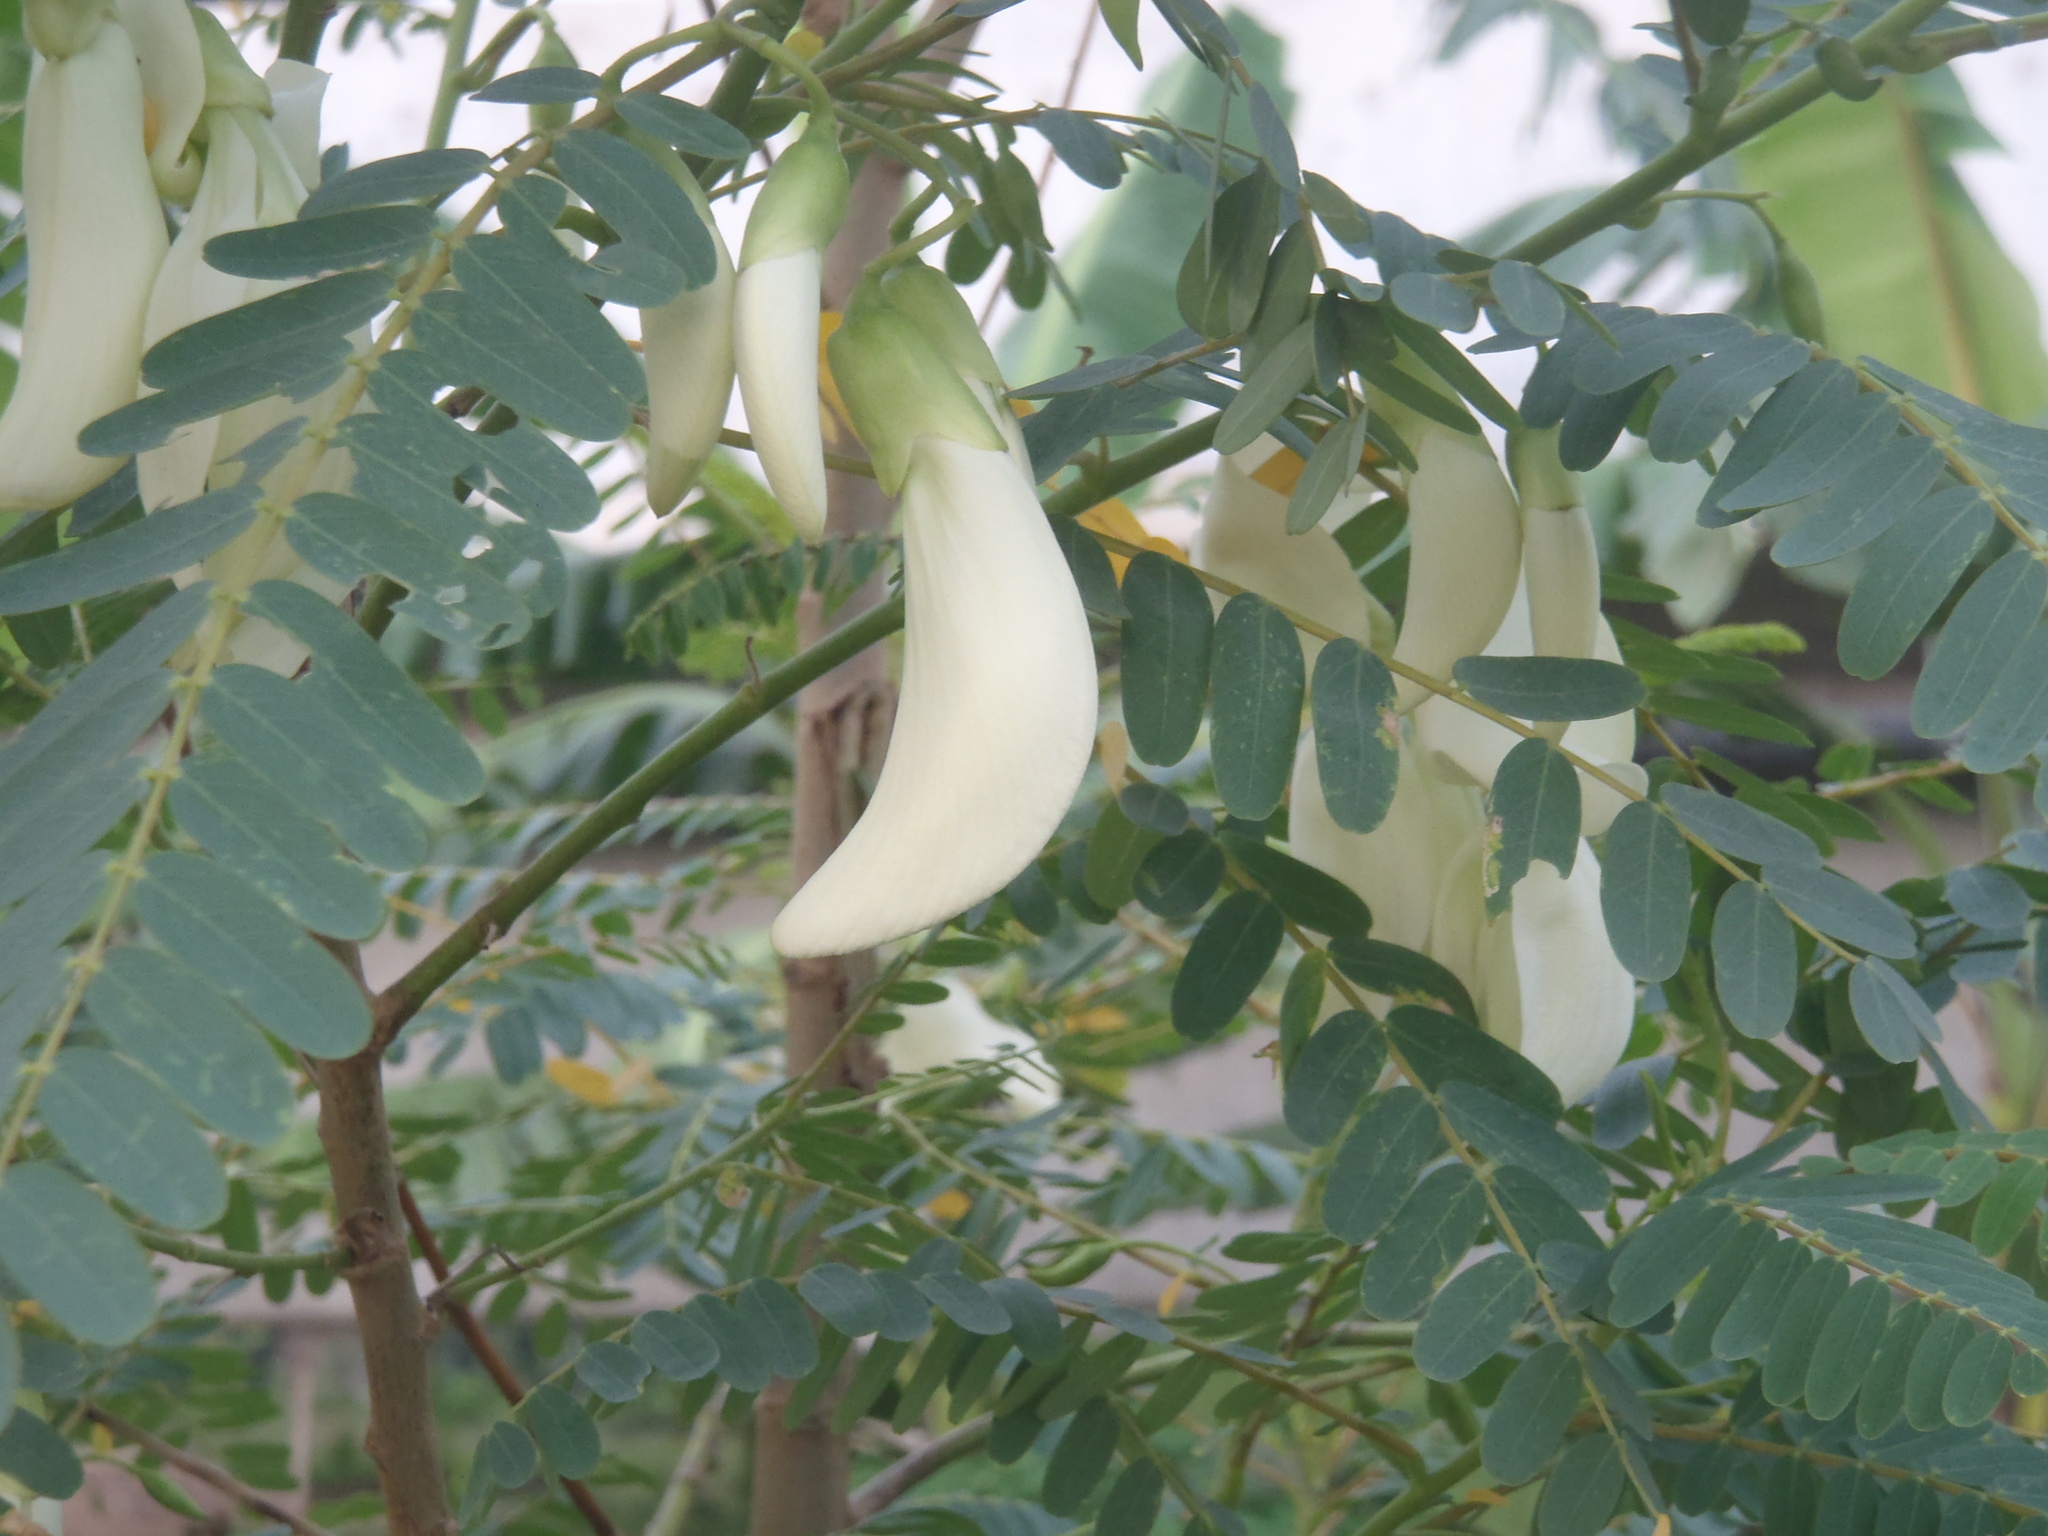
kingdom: Plantae
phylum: Tracheophyta
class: Magnoliopsida
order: Fabales
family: Fabaceae
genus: Sesbania
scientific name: Sesbania grandiflora
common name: Vegetable-hummingbird
